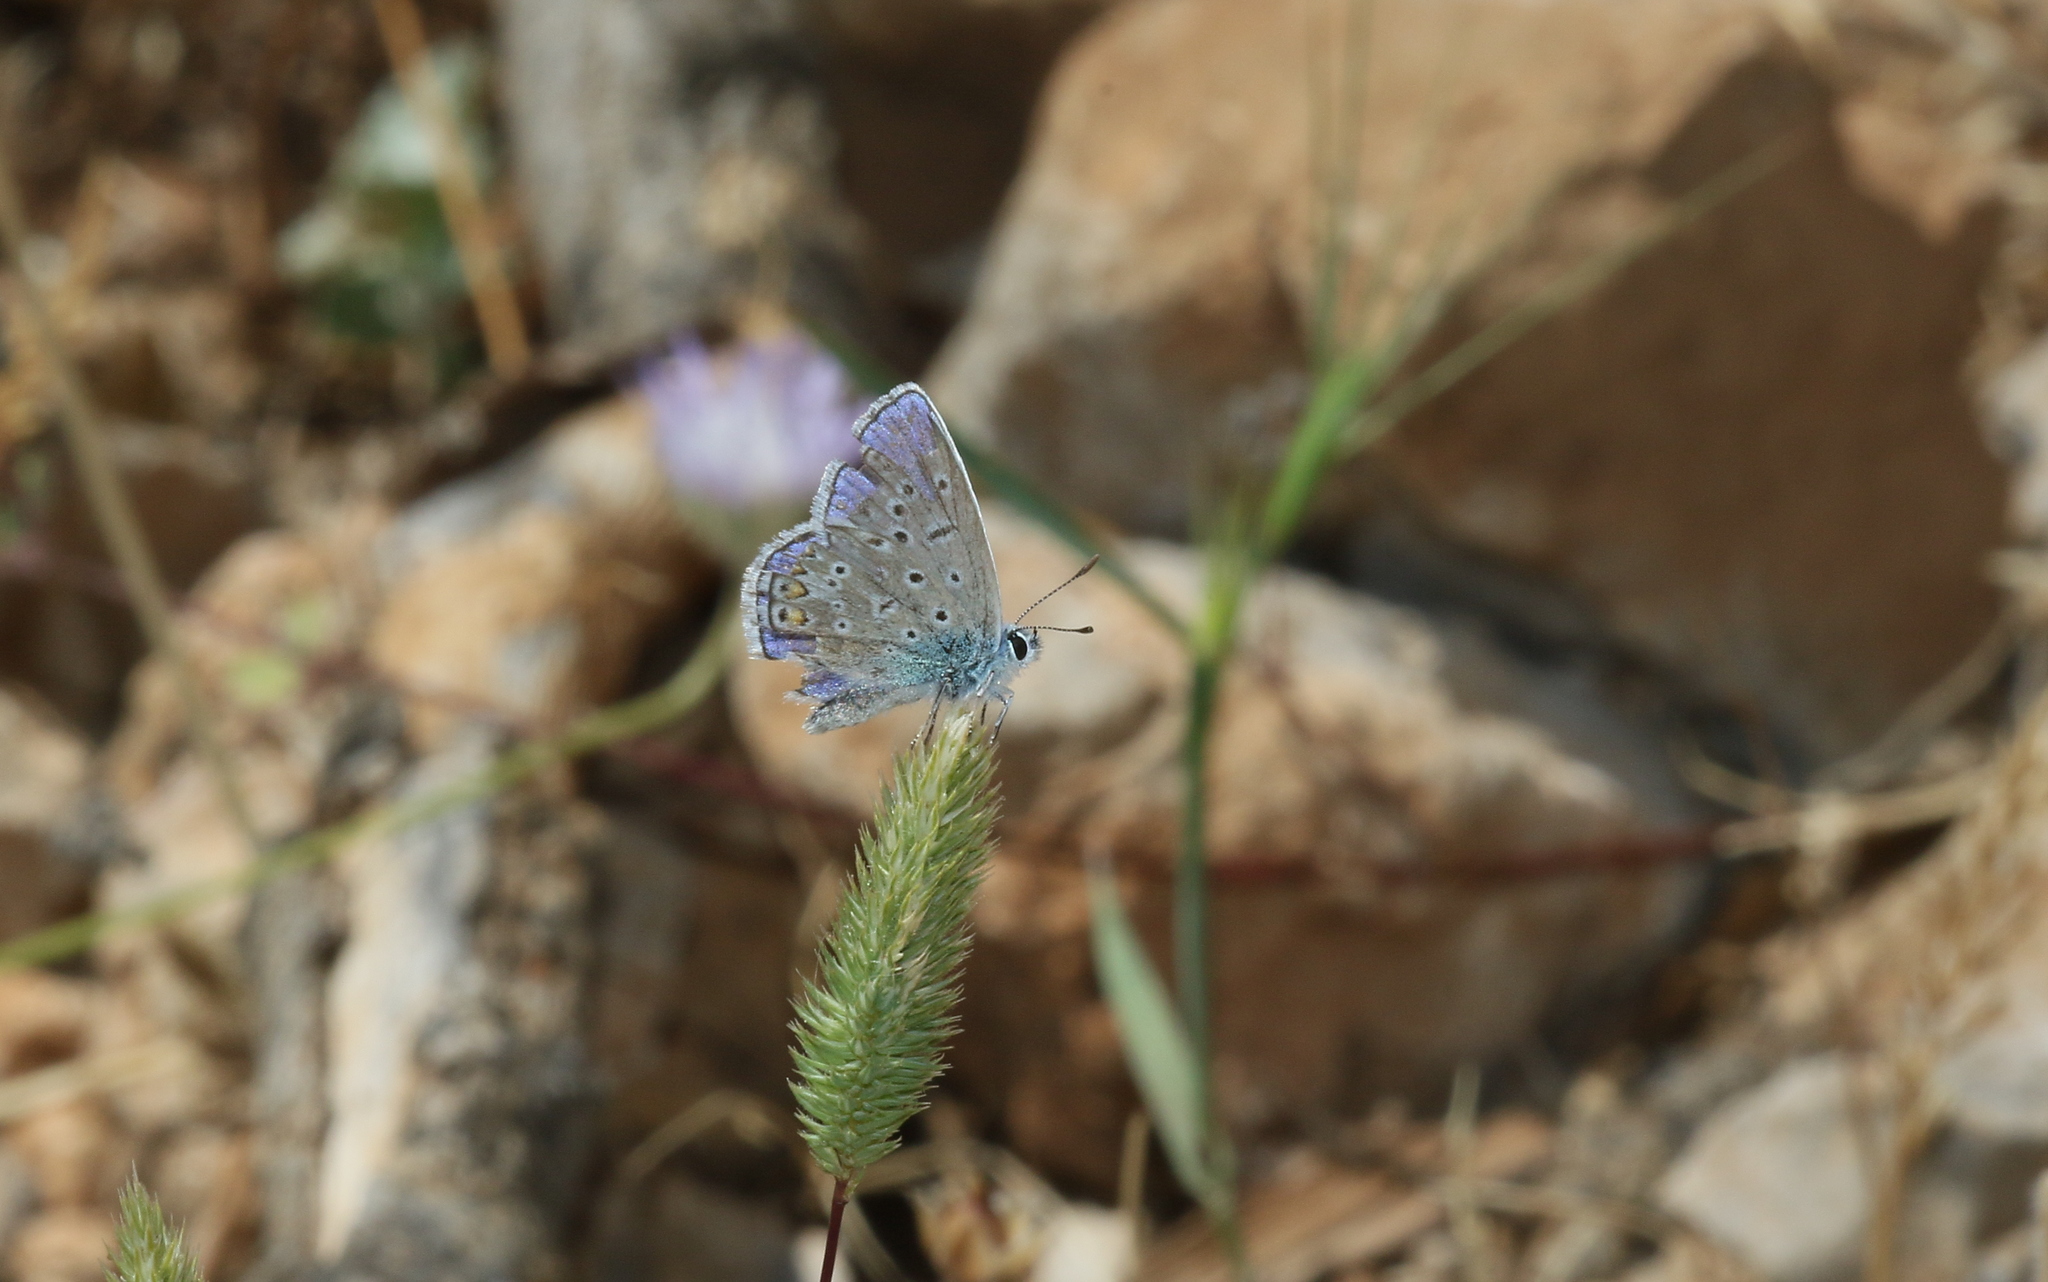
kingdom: Animalia
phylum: Arthropoda
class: Insecta
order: Lepidoptera
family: Lycaenidae
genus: Polyommatus
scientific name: Polyommatus icarus
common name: Common blue
